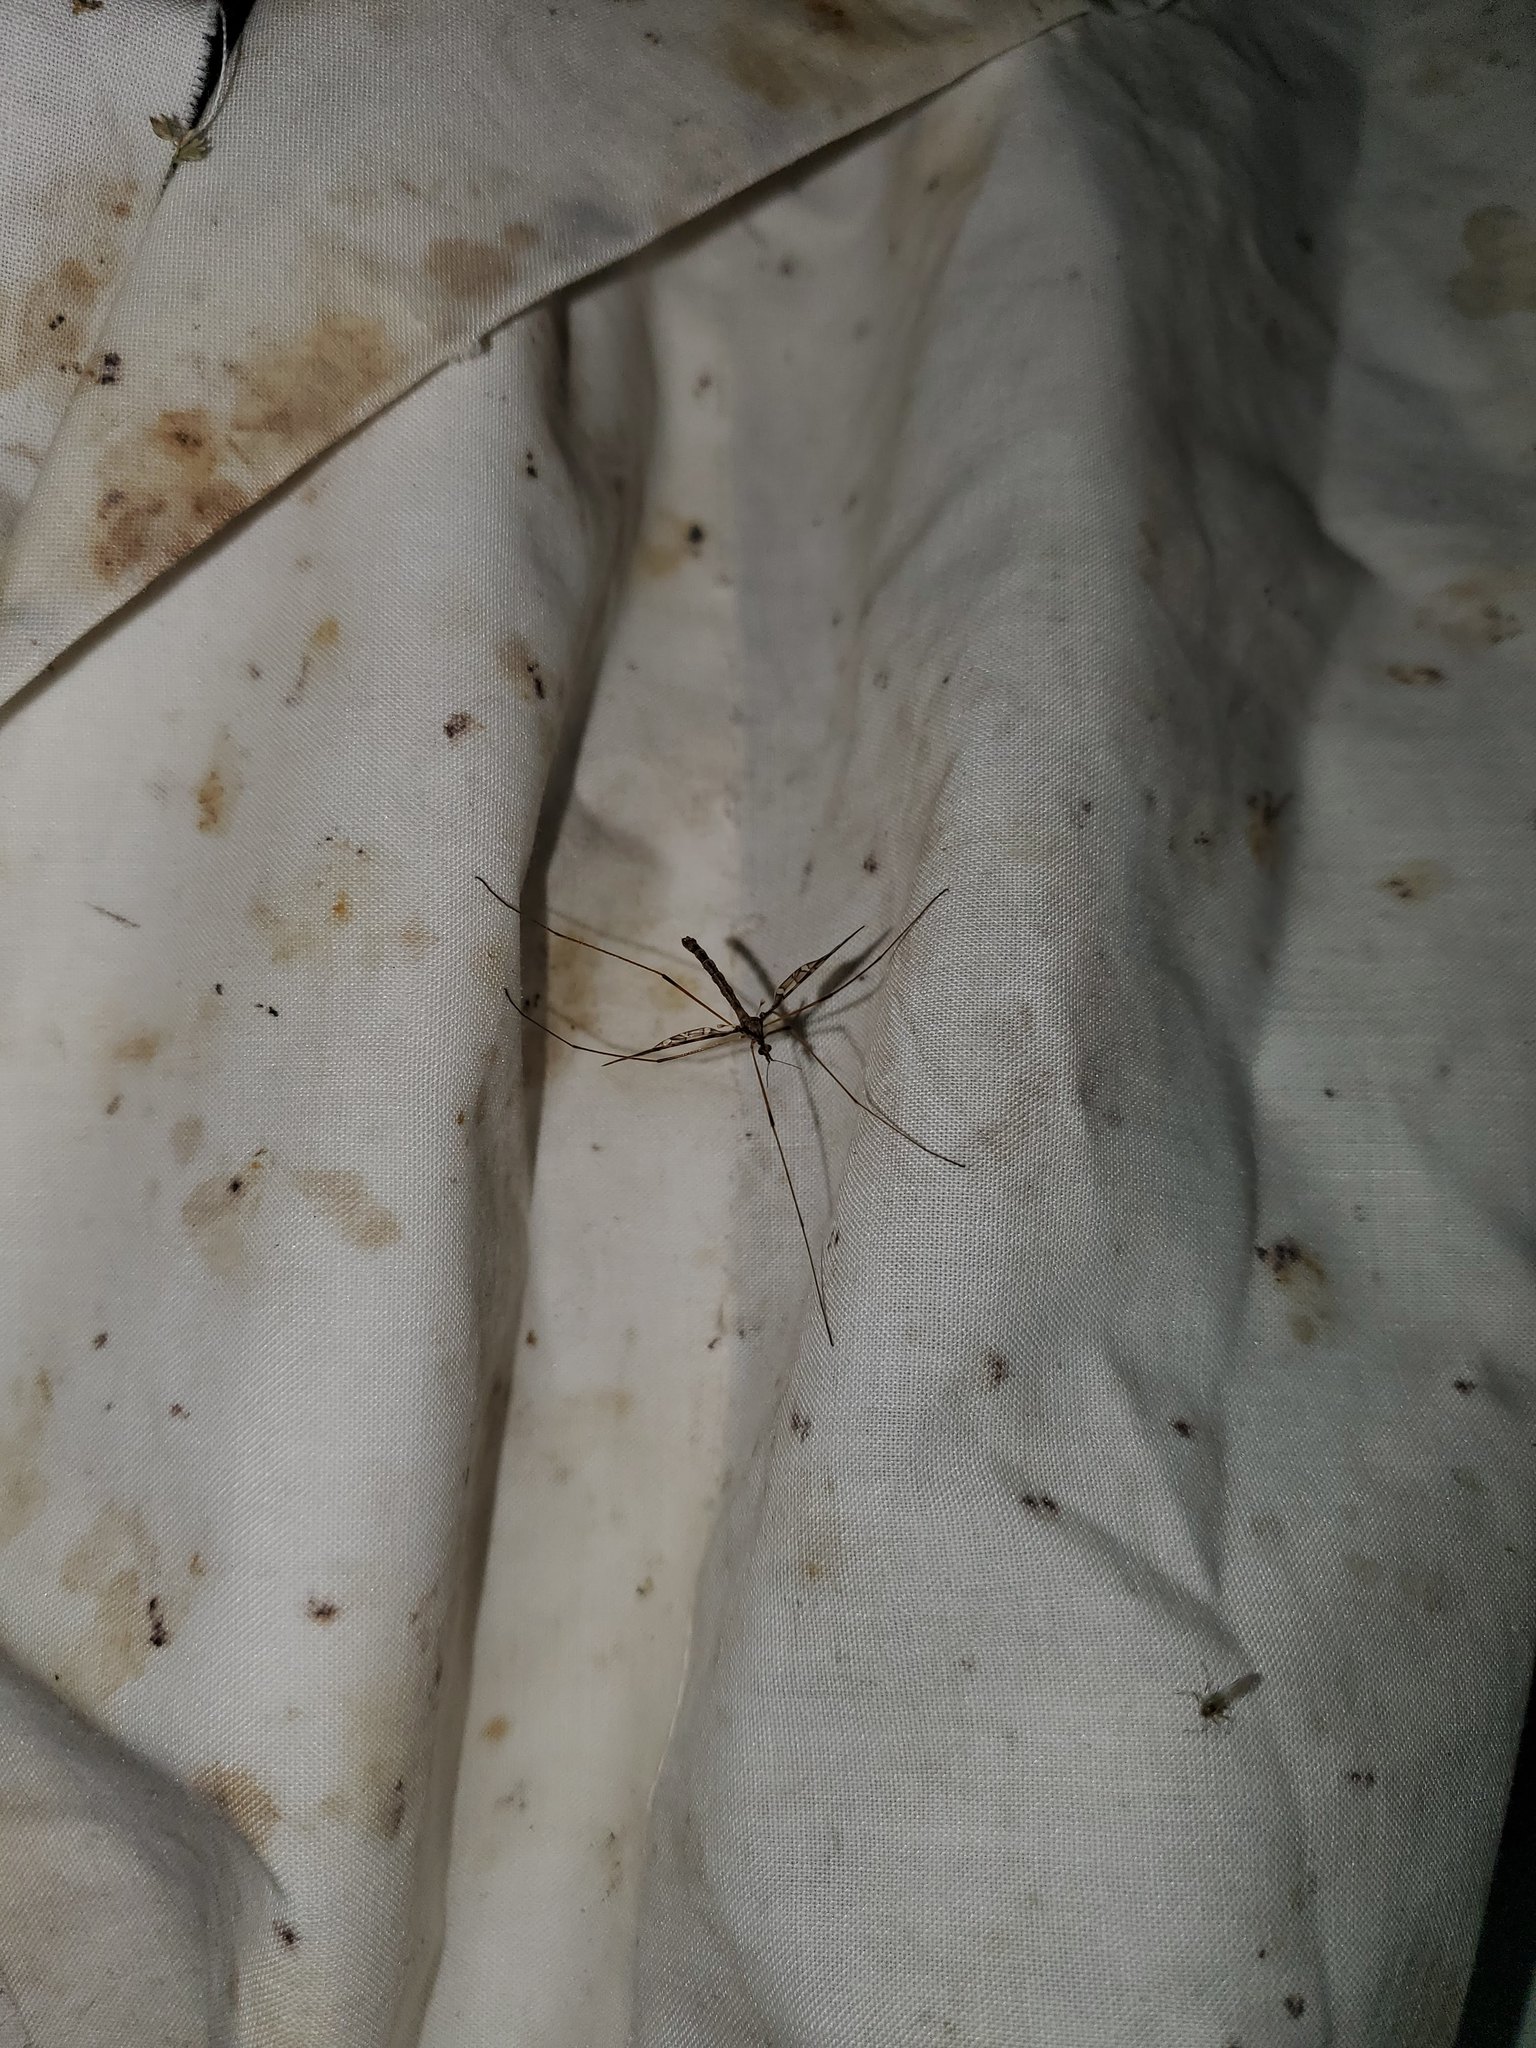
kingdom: Animalia
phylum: Arthropoda
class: Insecta
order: Diptera
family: Limoniidae
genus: Epiphragma
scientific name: Epiphragma fasciapenne
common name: Band-winged crane fly
